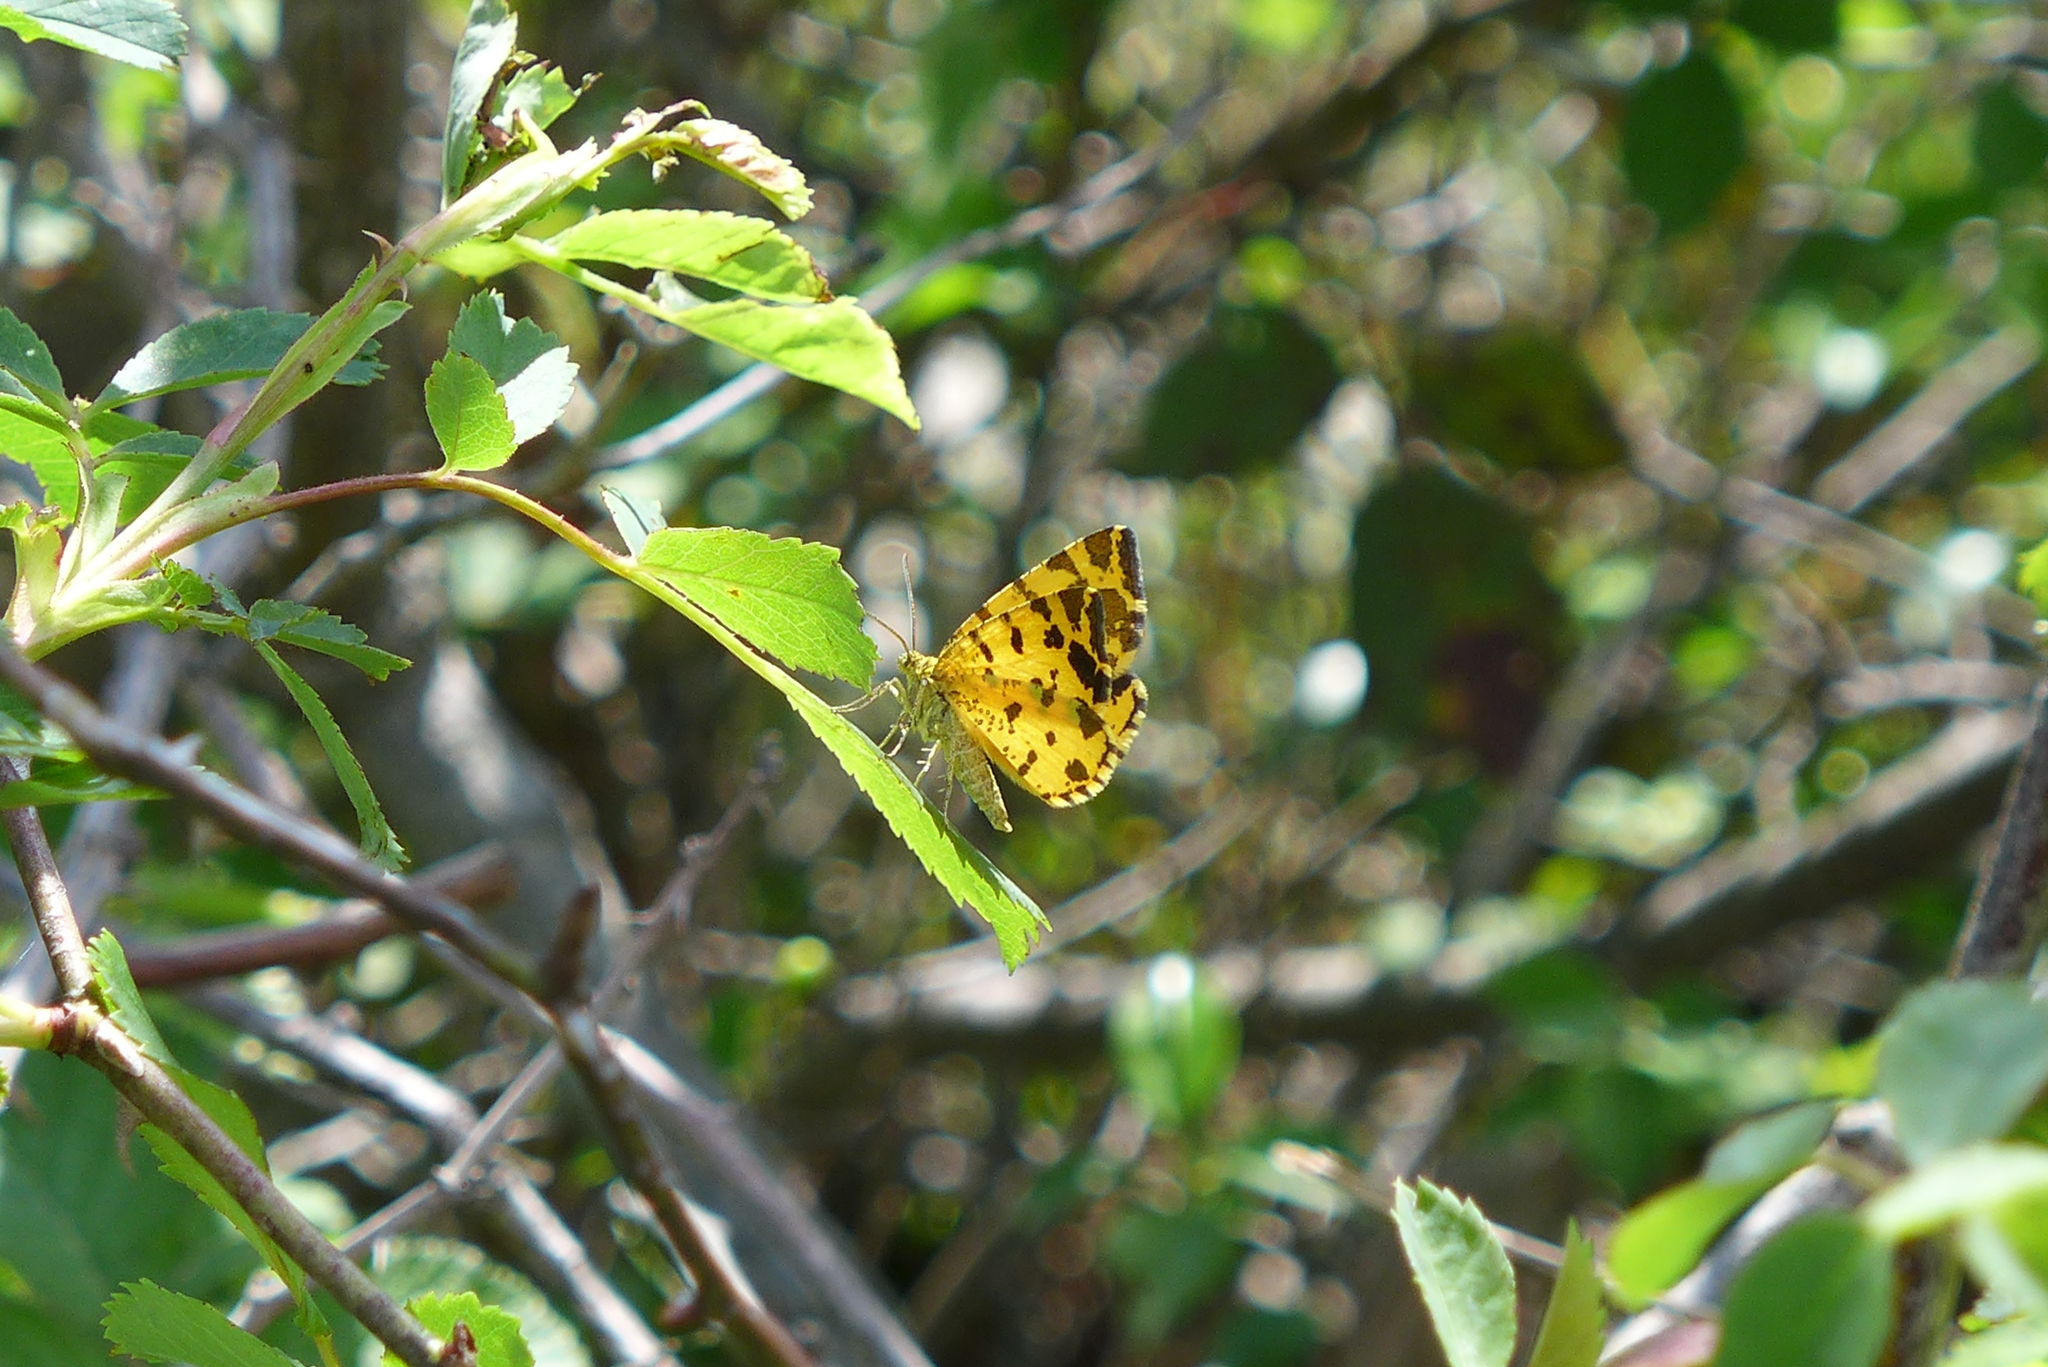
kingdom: Animalia
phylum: Arthropoda
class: Insecta
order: Lepidoptera
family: Geometridae
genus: Pseudopanthera
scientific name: Pseudopanthera macularia
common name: Speckled yellow
